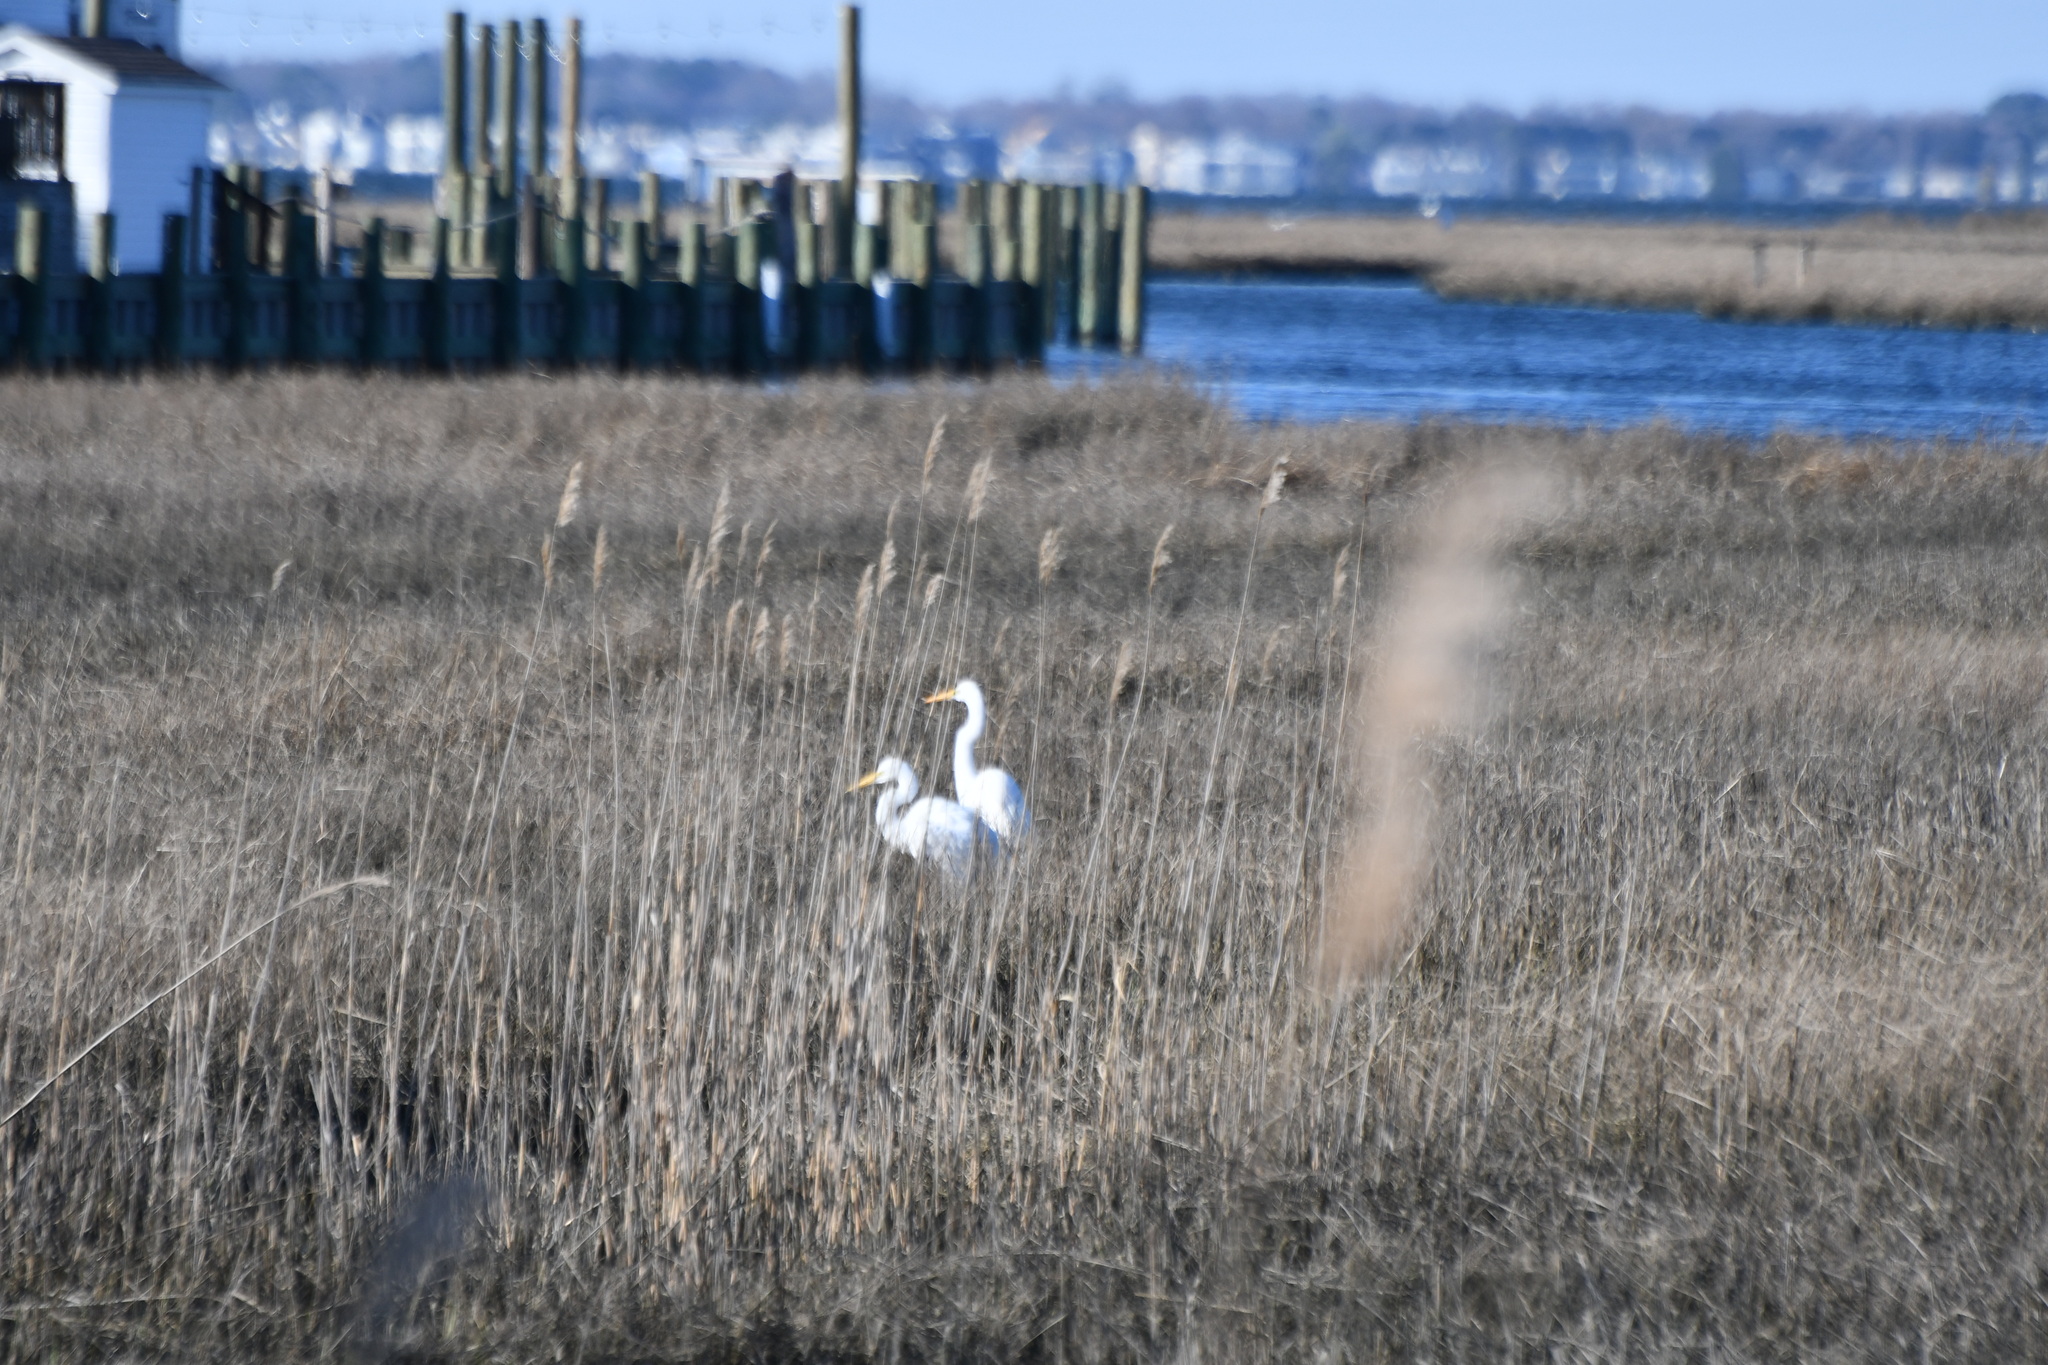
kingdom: Animalia
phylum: Chordata
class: Aves
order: Pelecaniformes
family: Ardeidae
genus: Ardea
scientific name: Ardea alba
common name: Great egret
